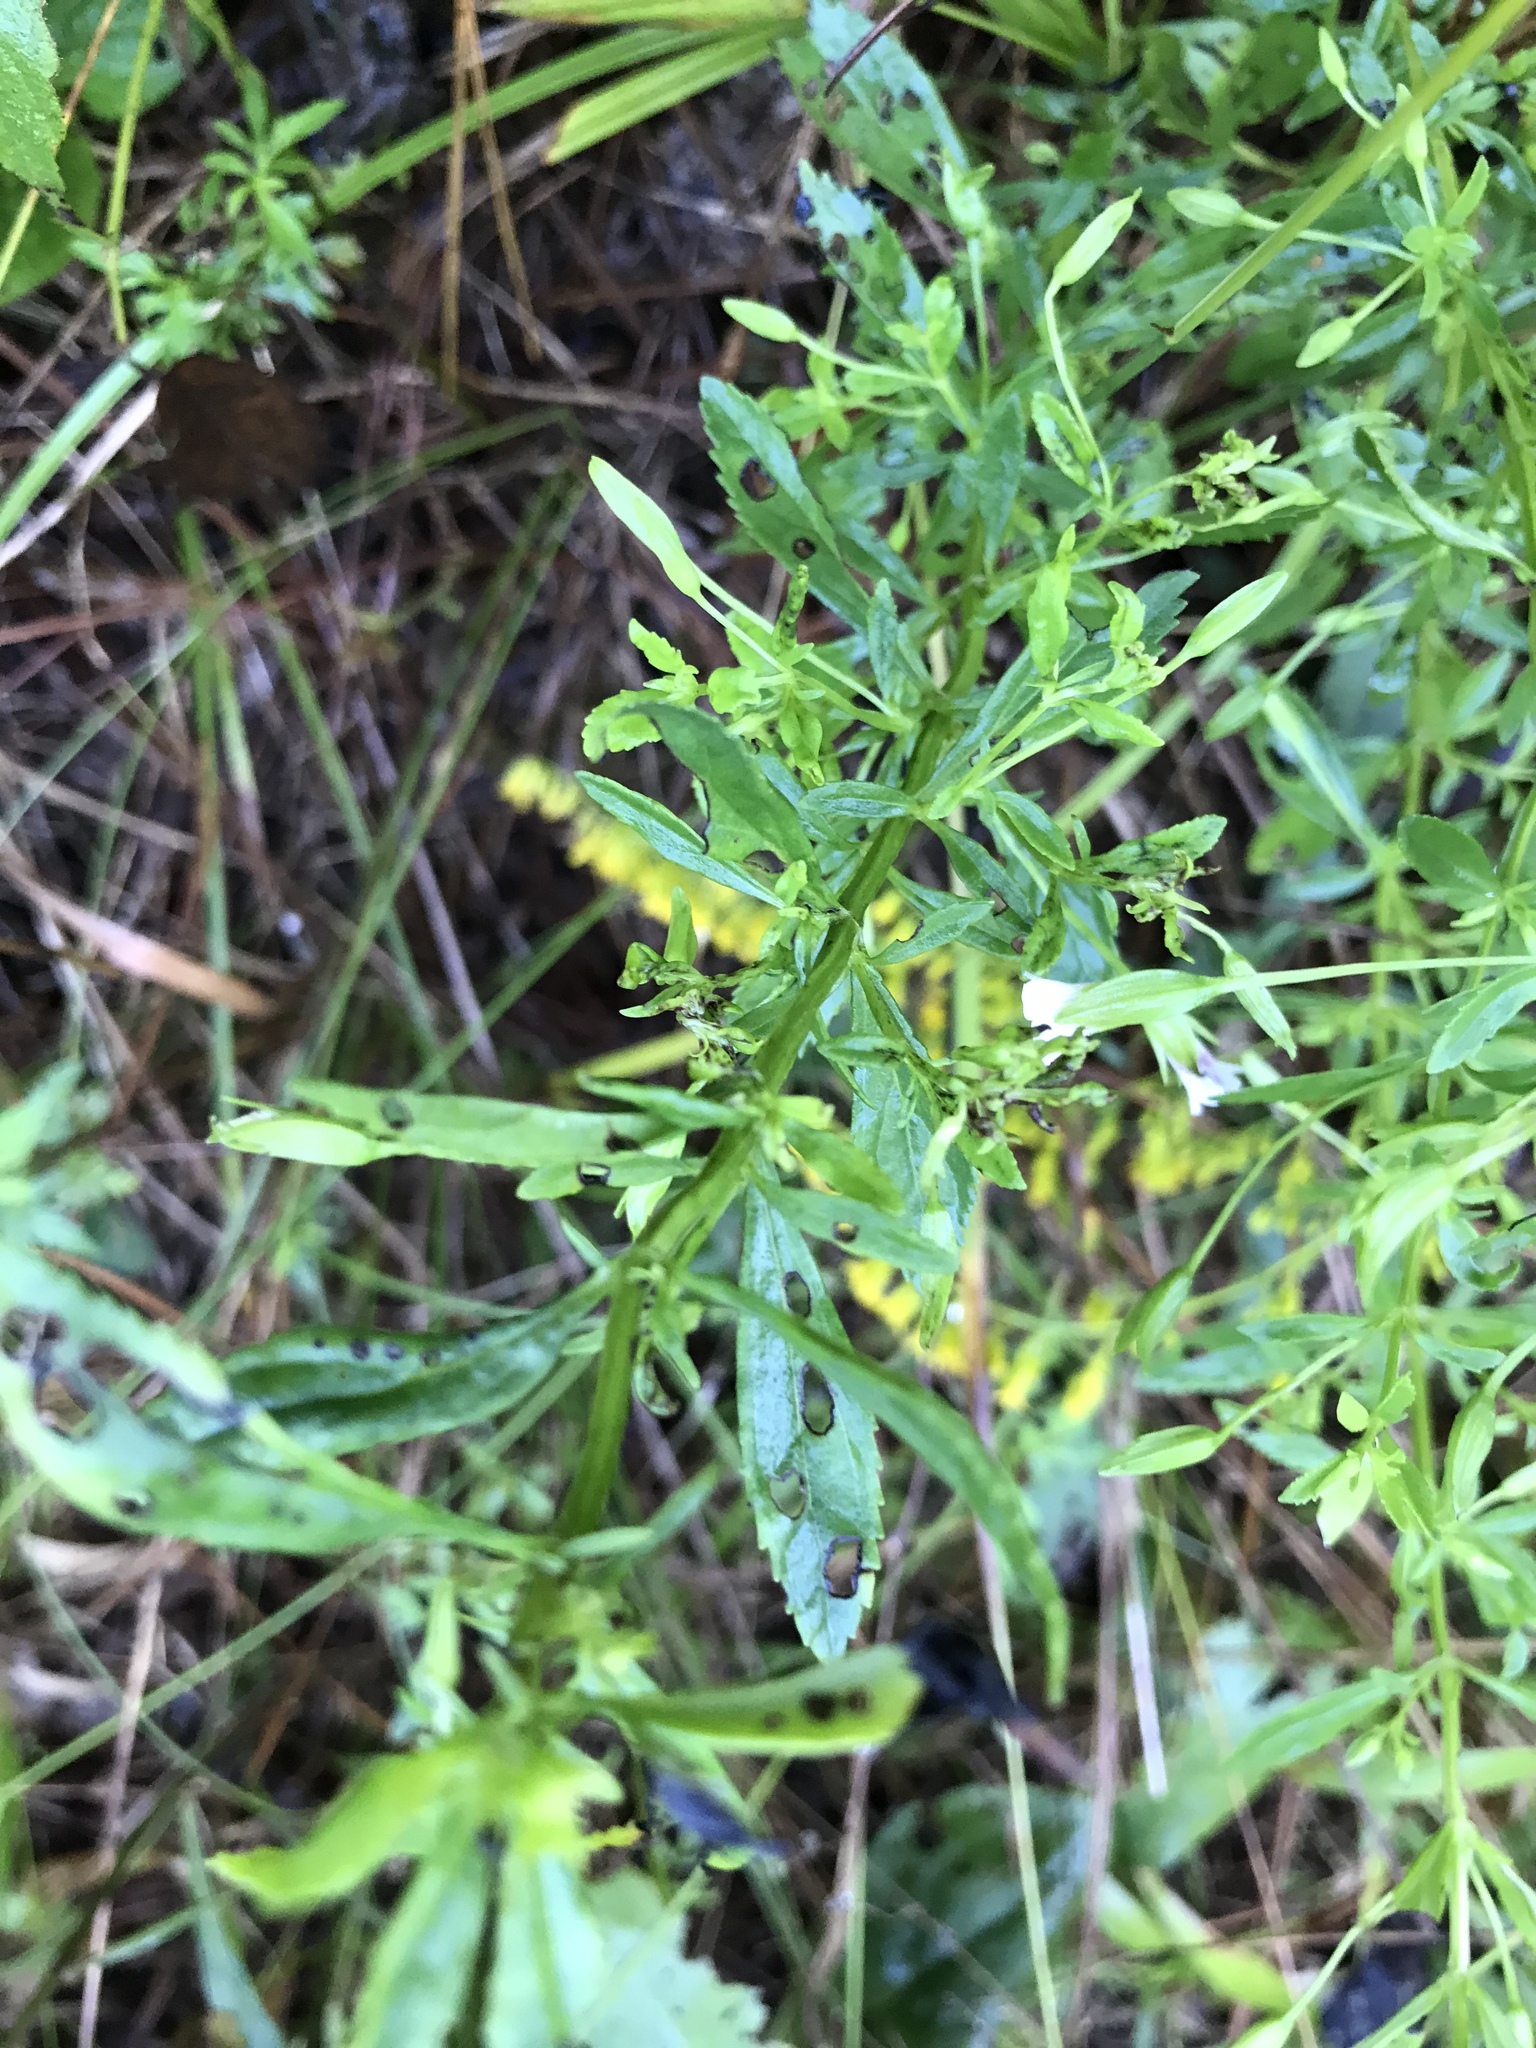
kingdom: Plantae
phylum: Tracheophyta
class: Magnoliopsida
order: Lamiales
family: Plantaginaceae
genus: Mecardonia
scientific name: Mecardonia acuminata
